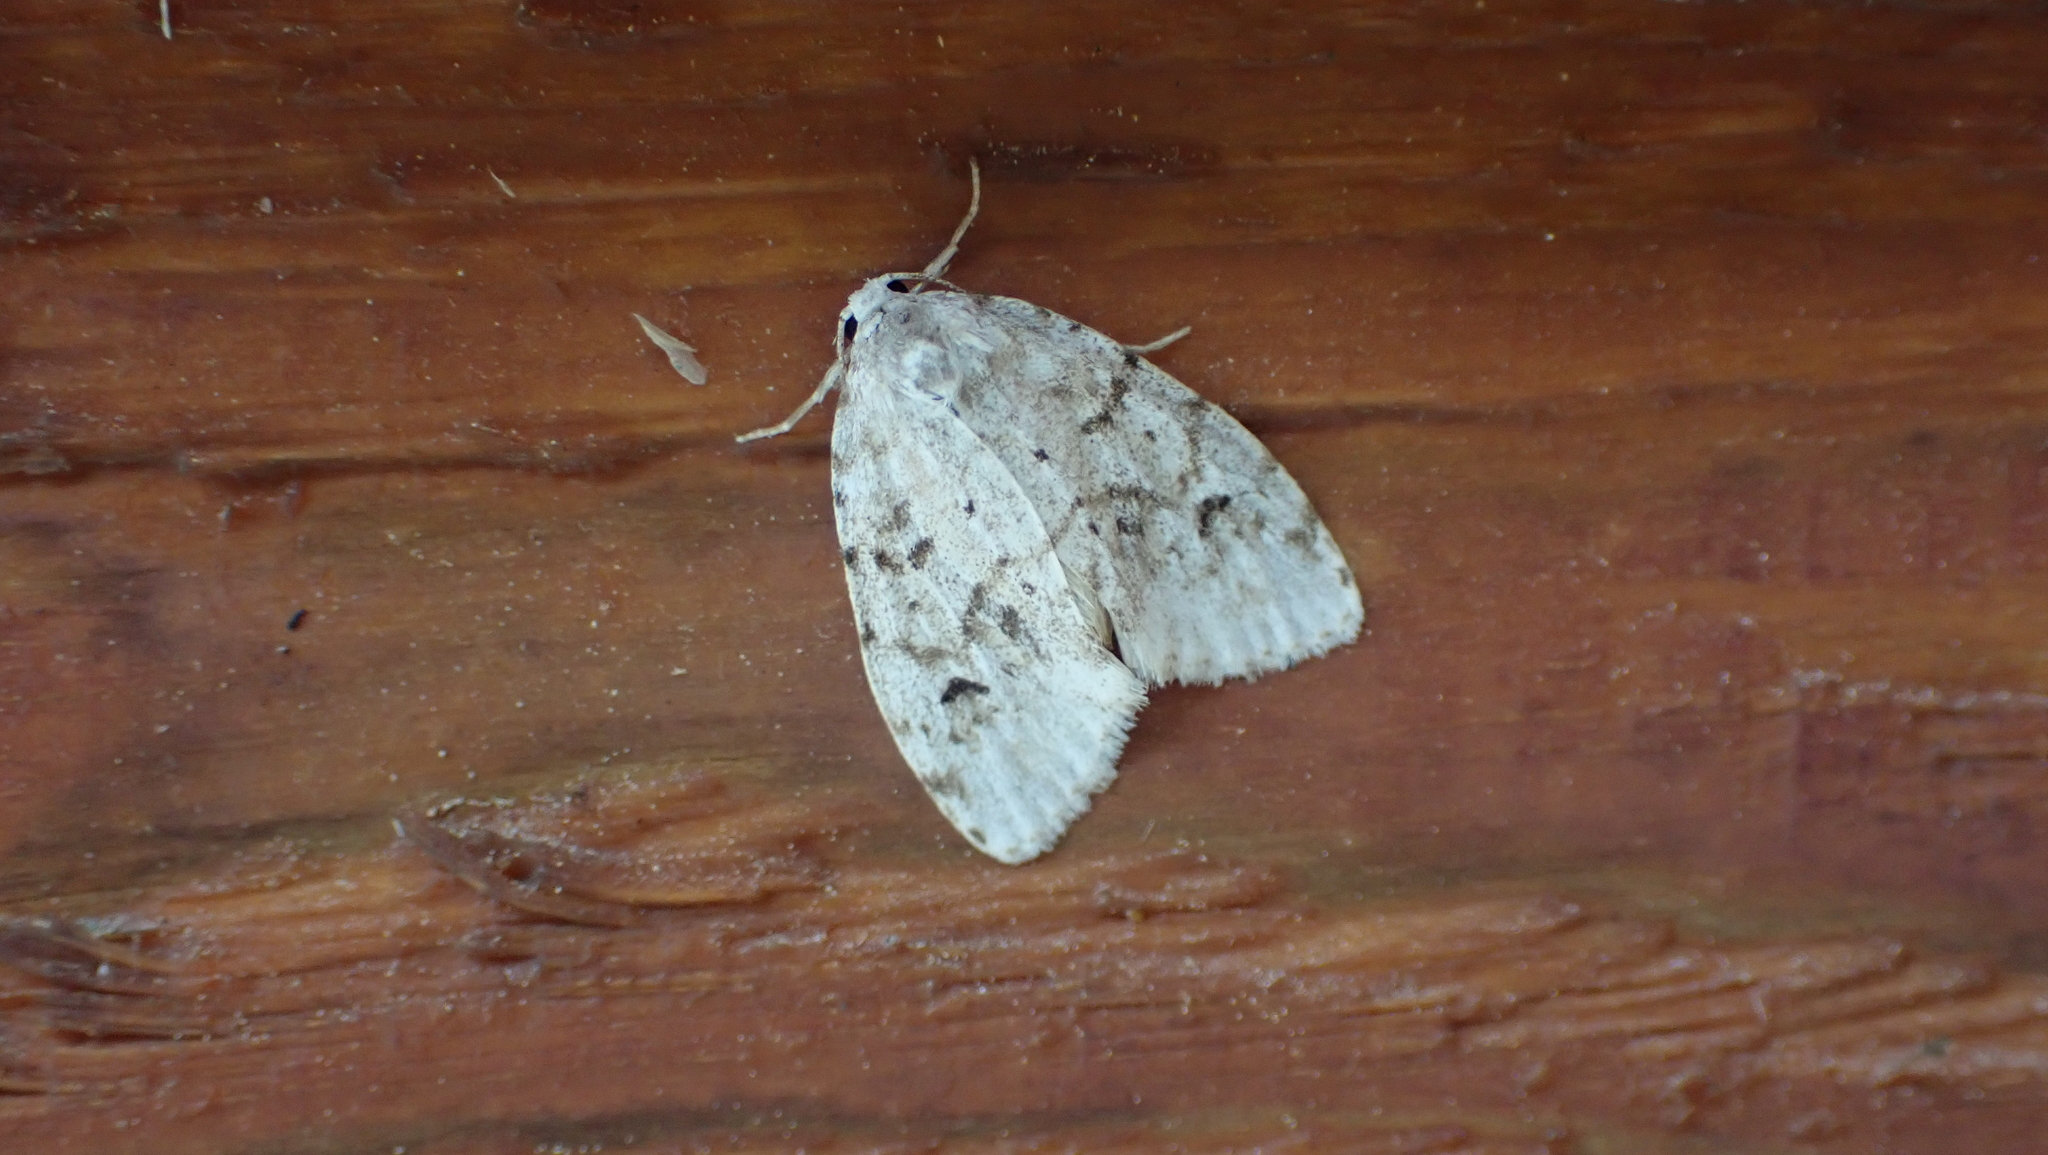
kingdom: Animalia
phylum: Arthropoda
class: Insecta
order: Lepidoptera
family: Erebidae
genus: Clemensia
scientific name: Clemensia albata
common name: Little white lichen moth
